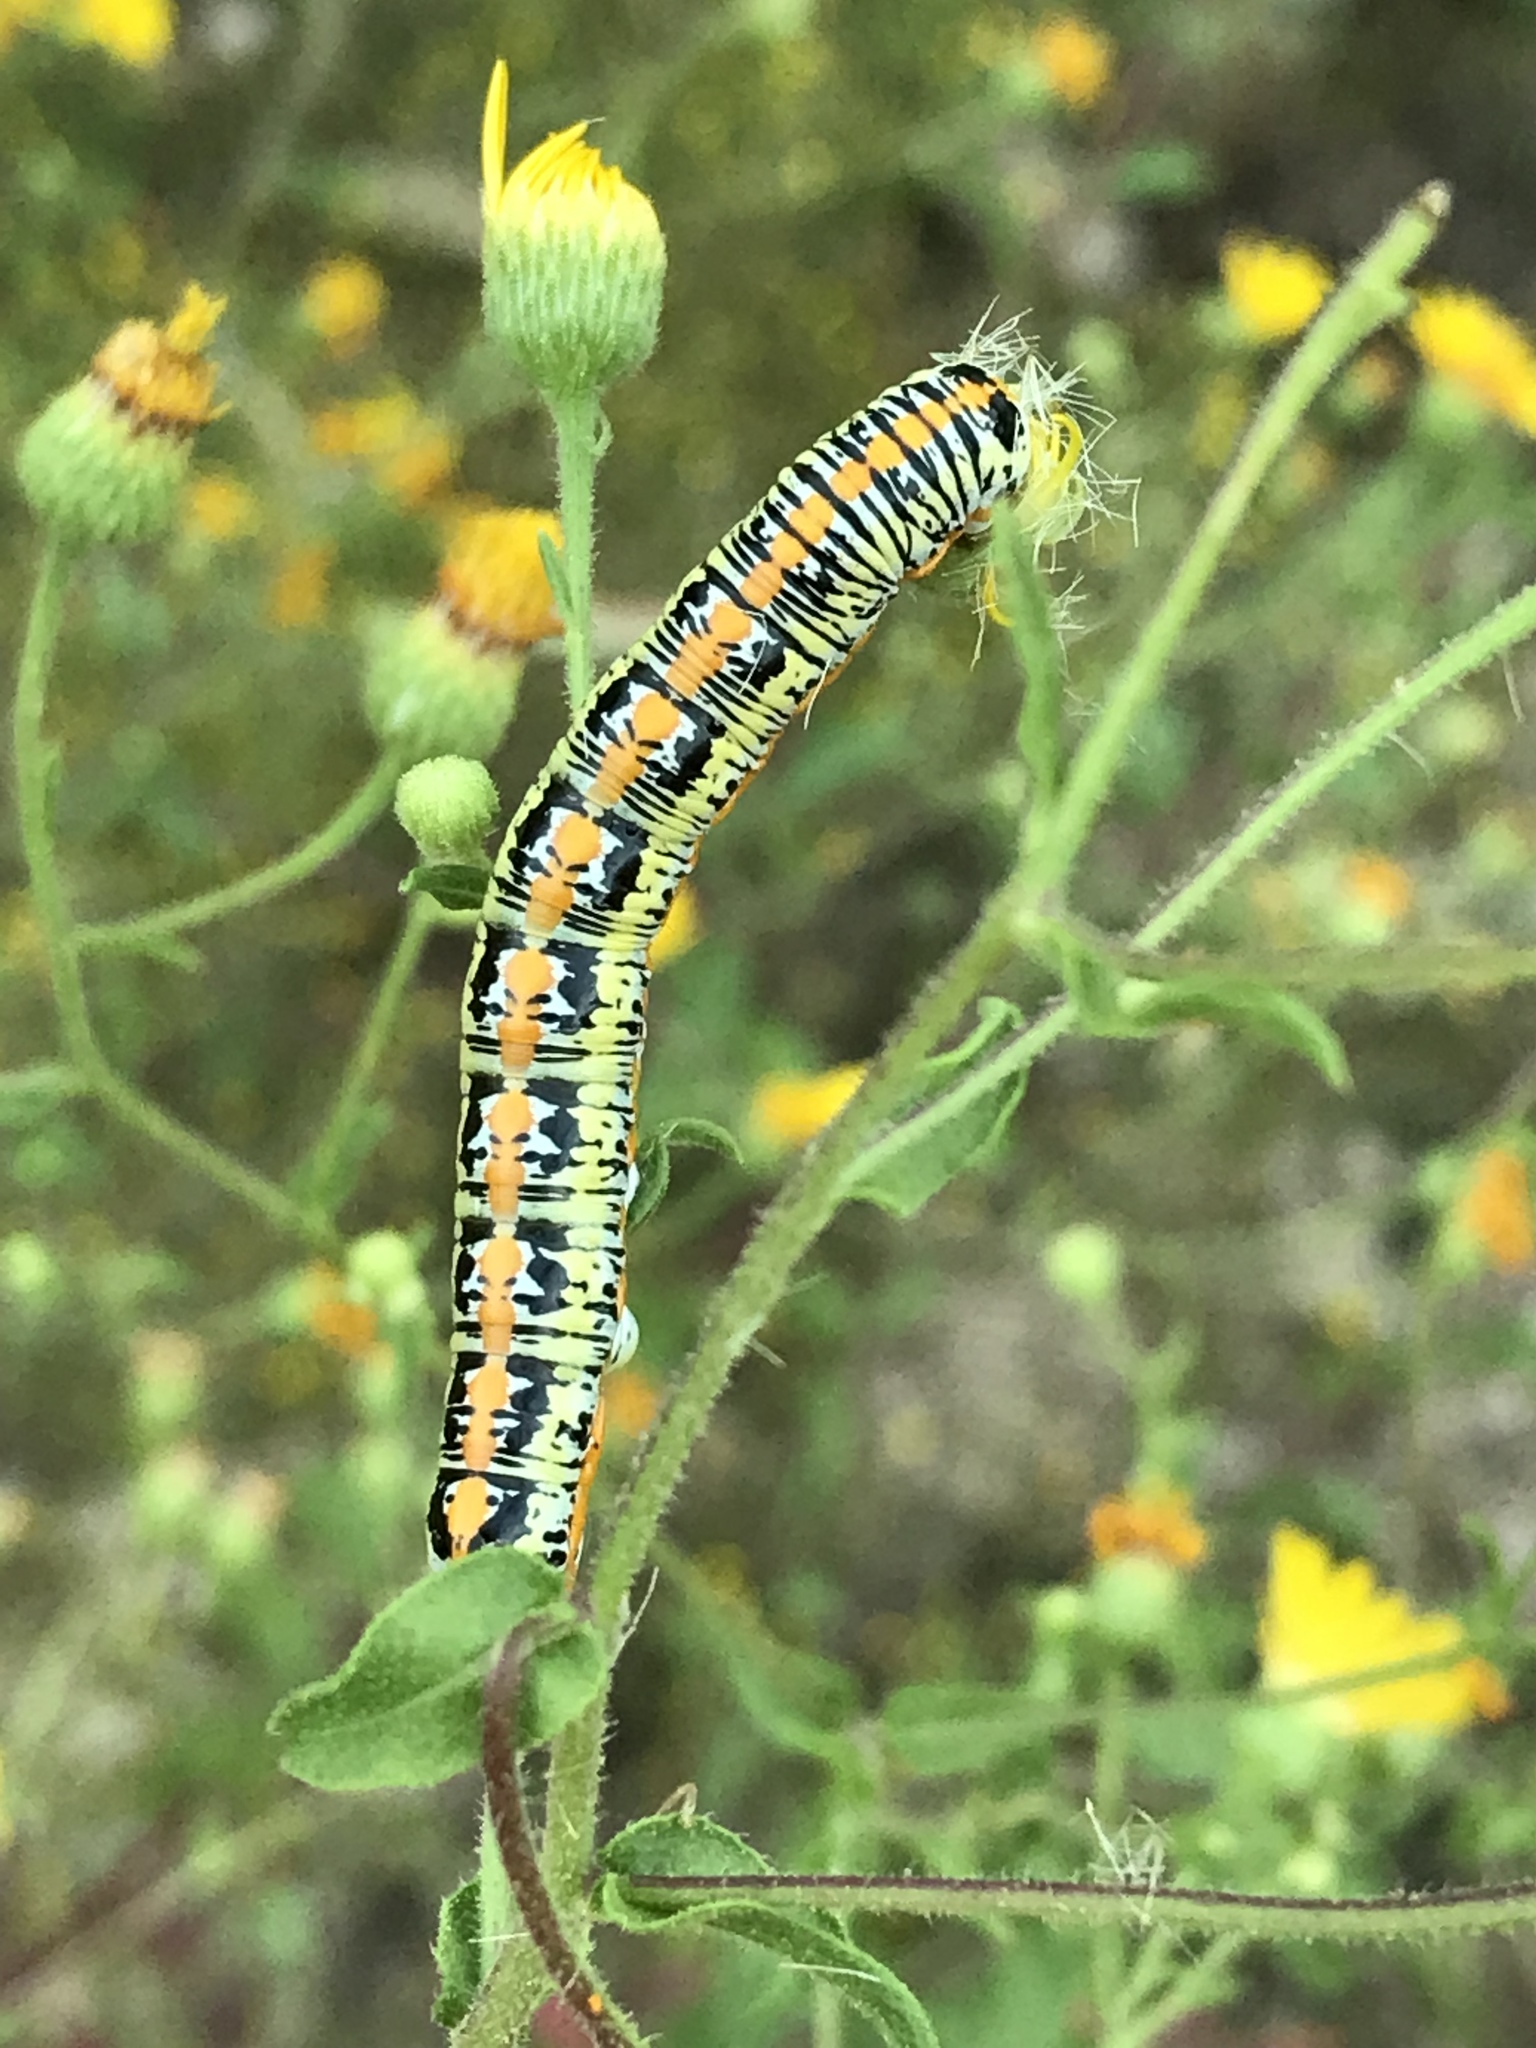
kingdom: Animalia
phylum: Arthropoda
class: Insecta
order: Lepidoptera
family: Noctuidae
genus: Cucullia
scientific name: Cucullia lethe
